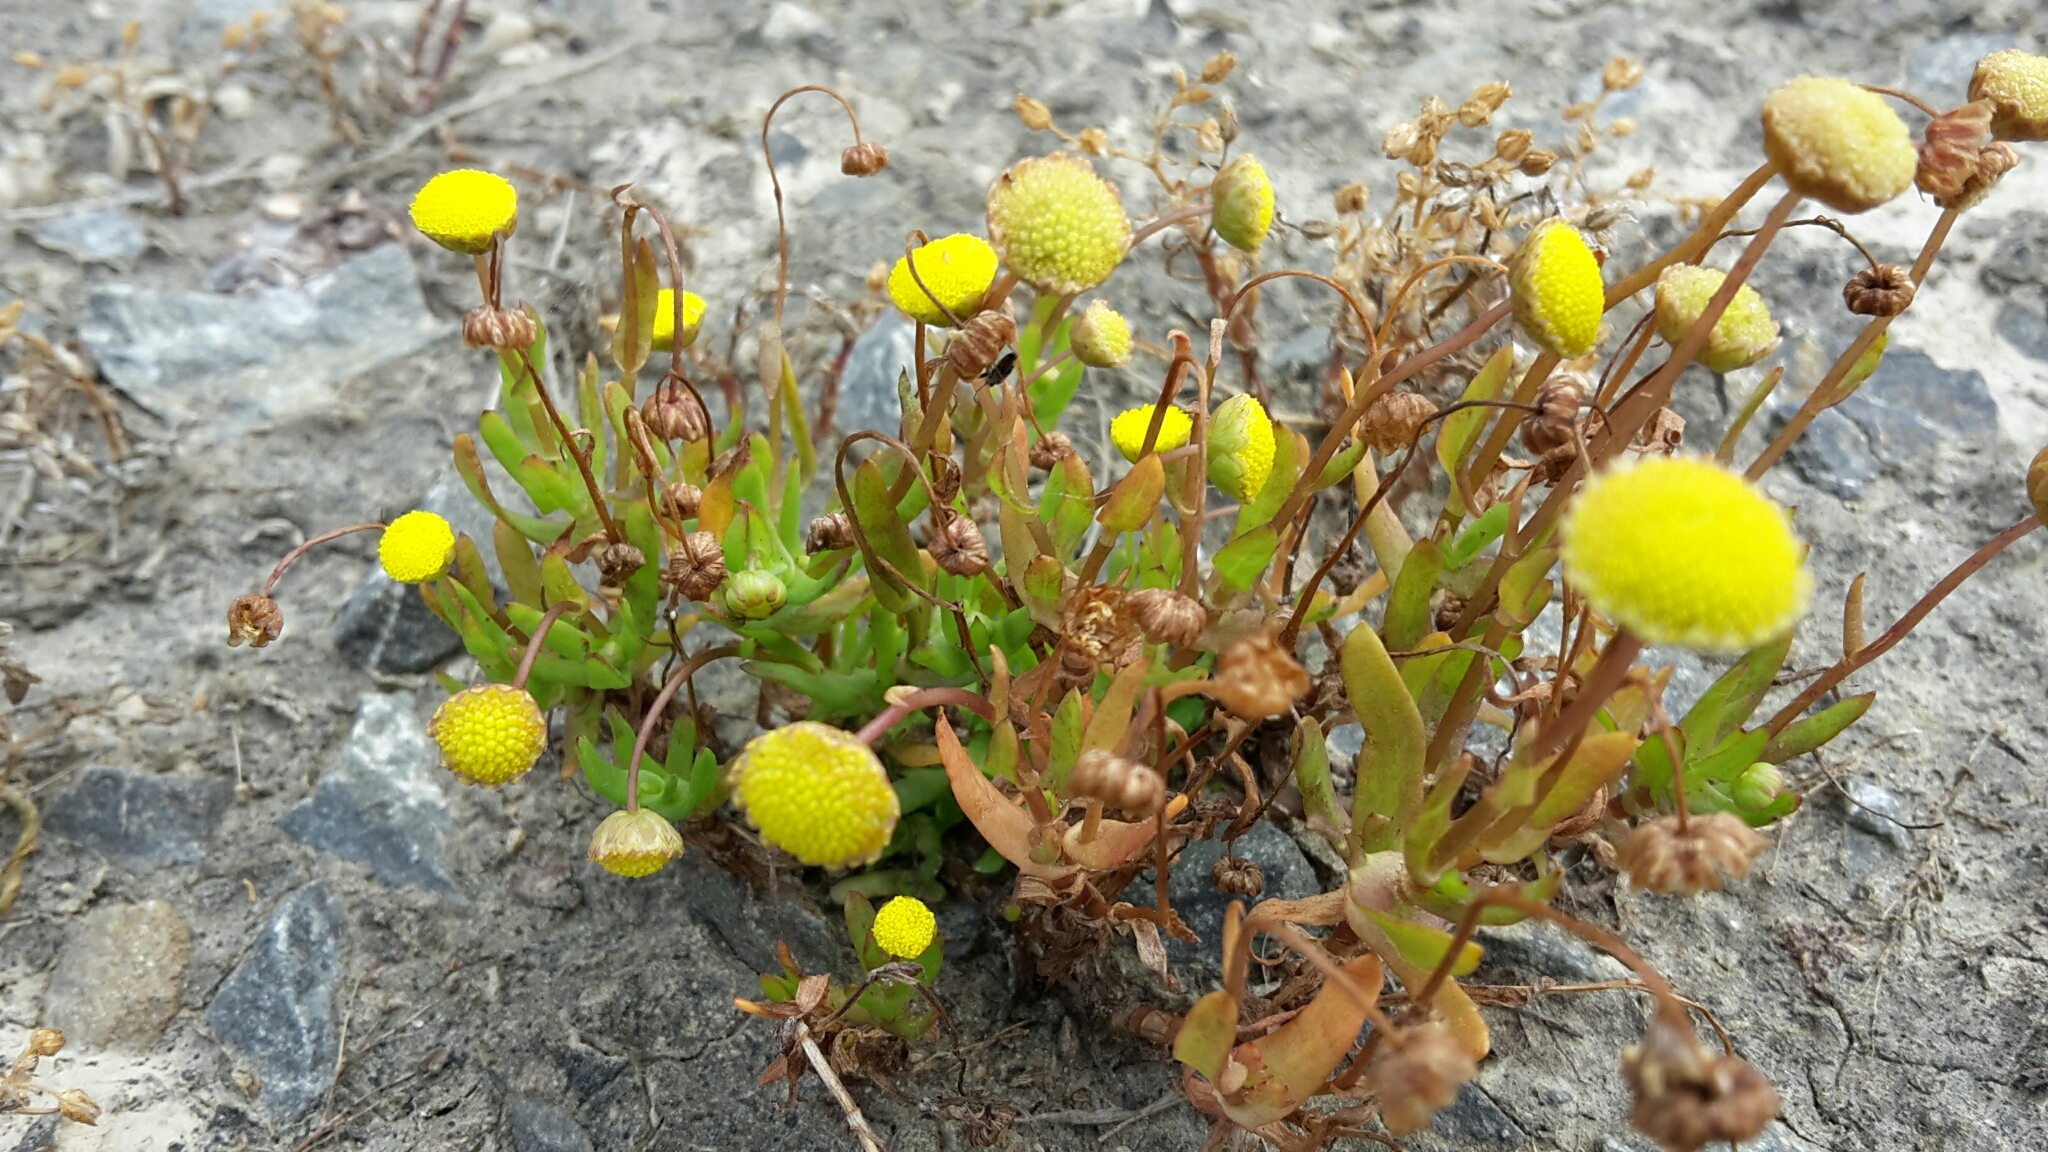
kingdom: Plantae
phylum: Tracheophyta
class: Magnoliopsida
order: Asterales
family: Asteraceae
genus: Cotula
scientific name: Cotula coronopifolia
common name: Buttonweed
